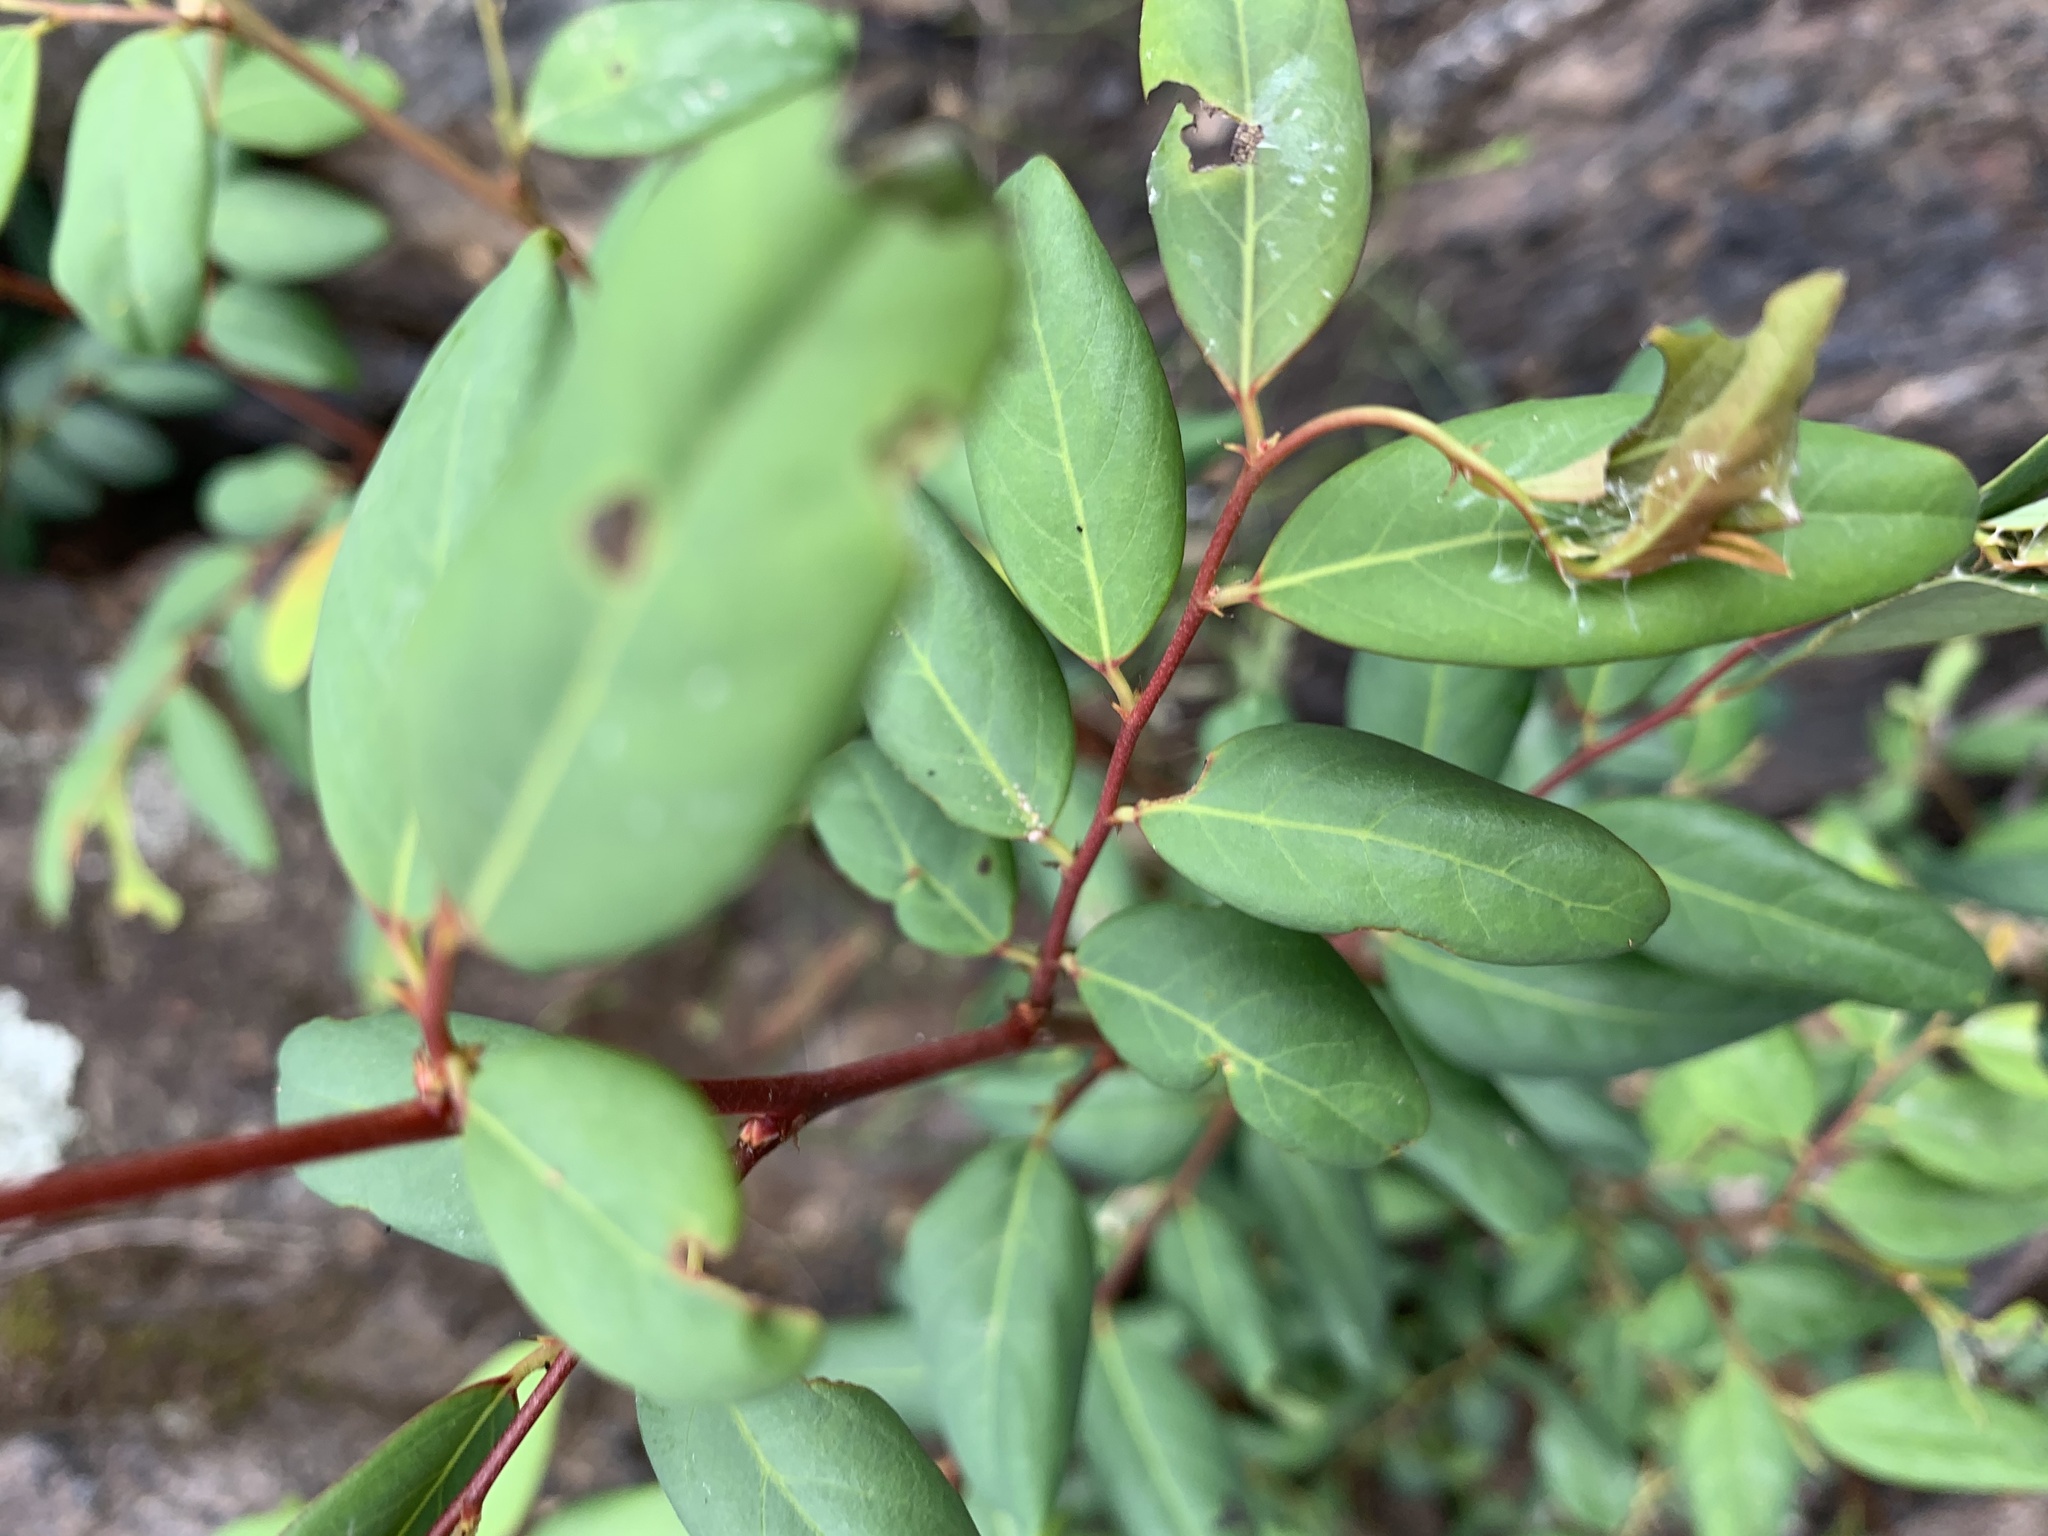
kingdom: Plantae
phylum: Tracheophyta
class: Magnoliopsida
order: Malpighiales
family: Phyllanthaceae
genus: Breynia
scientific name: Breynia oblongifolia
